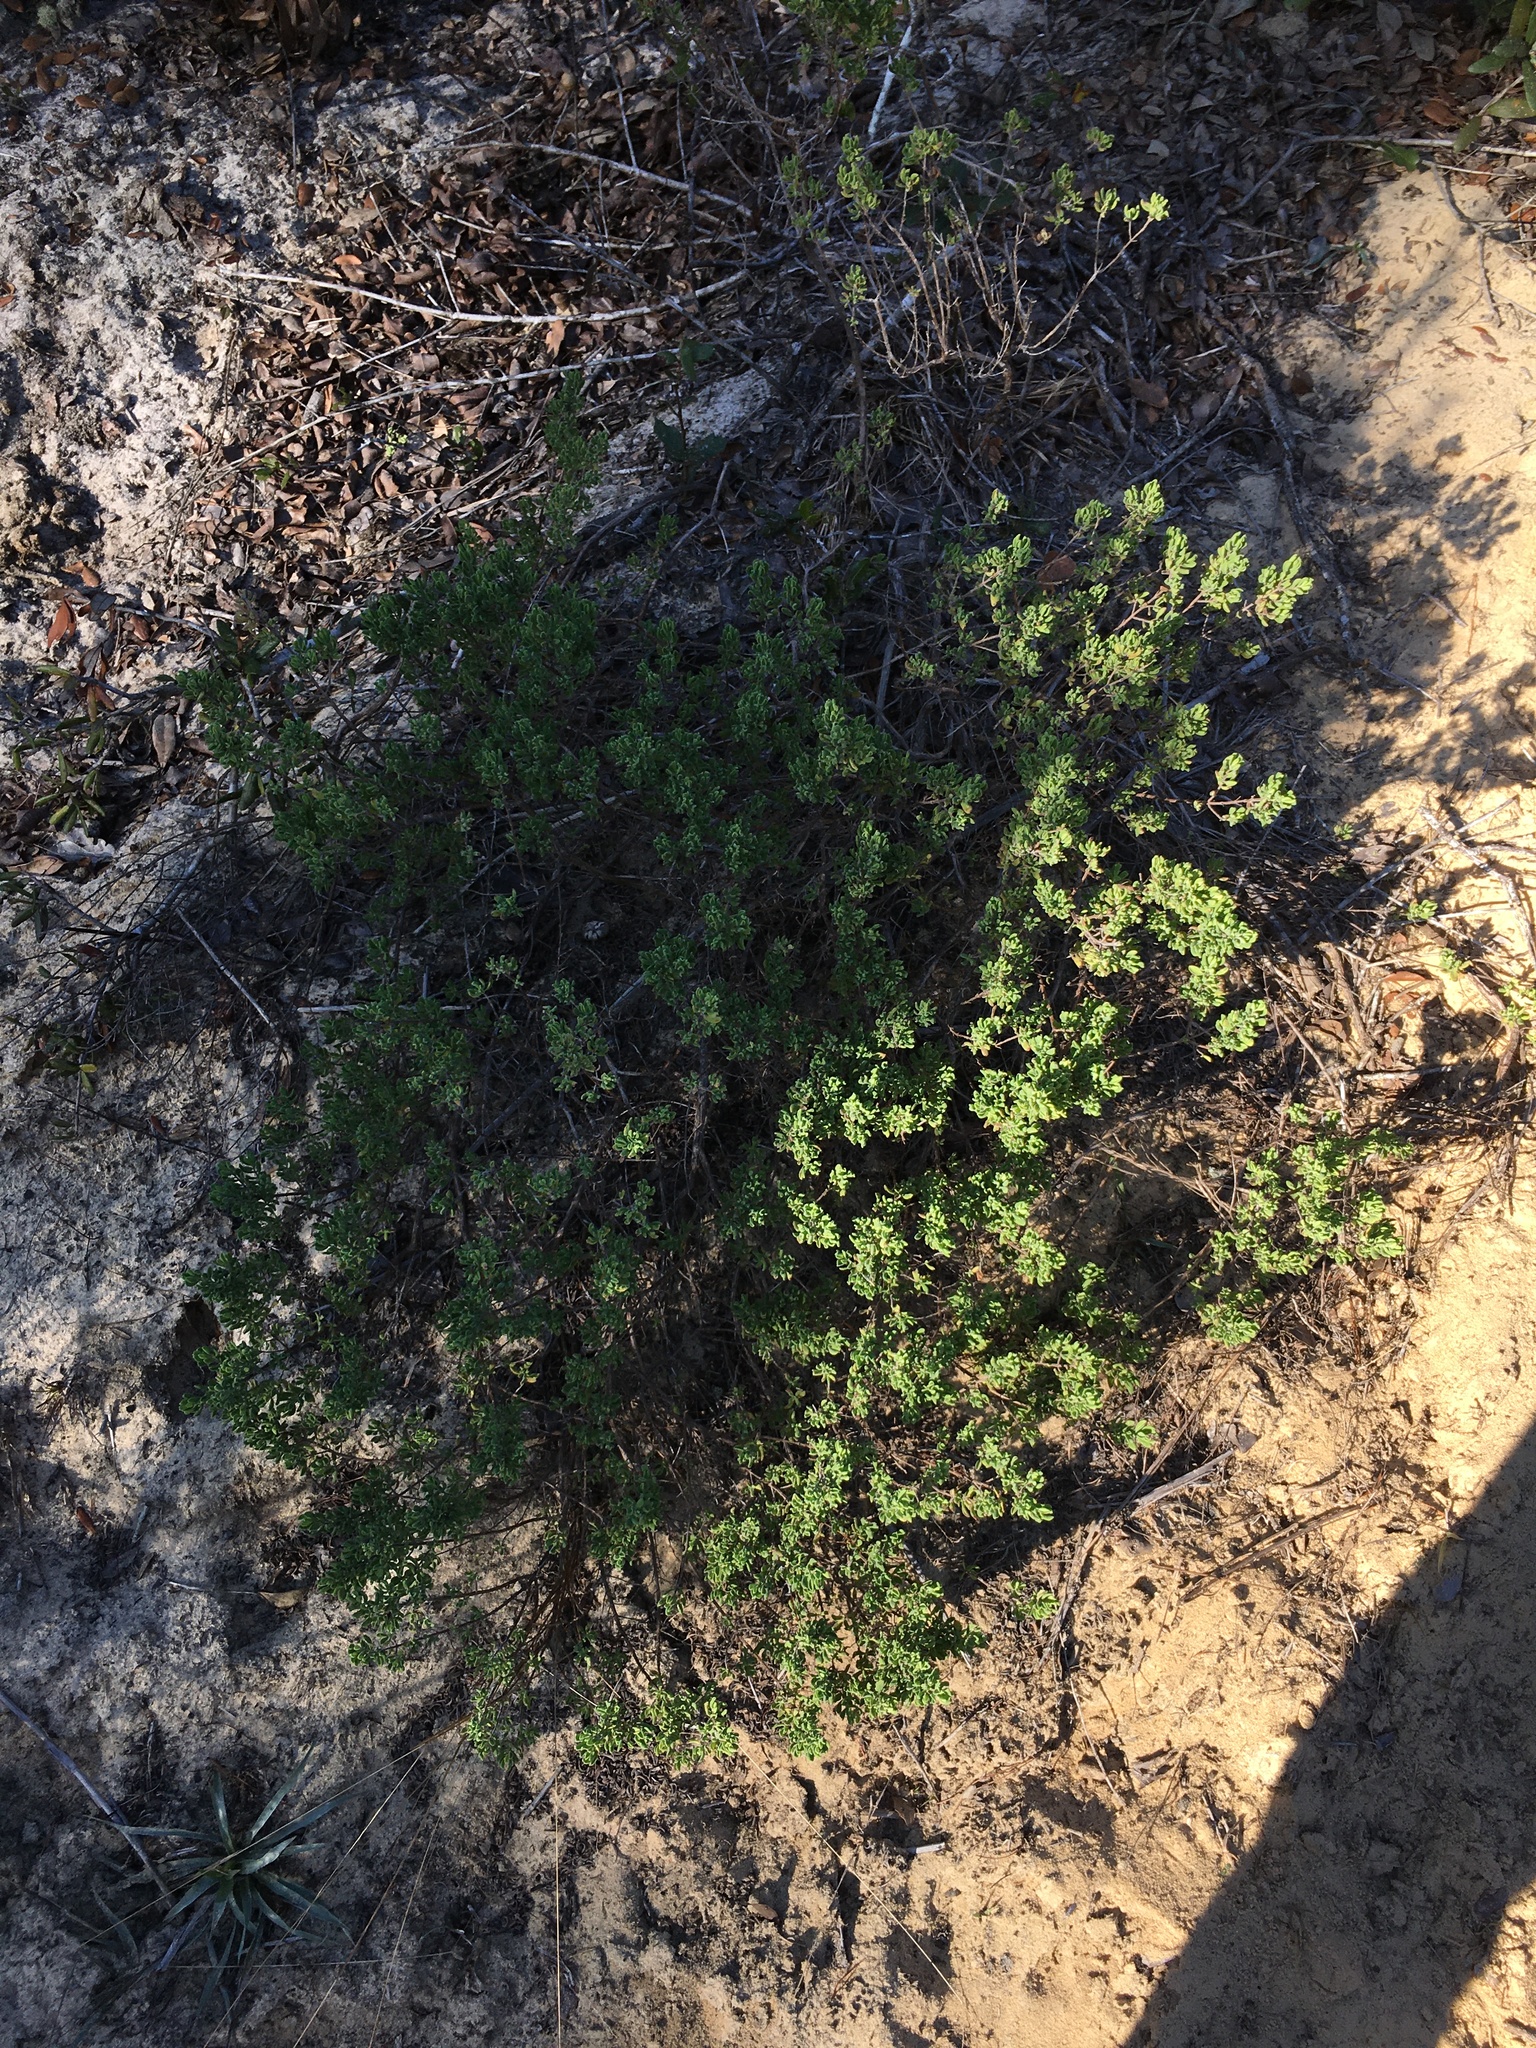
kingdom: Plantae
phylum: Tracheophyta
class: Magnoliopsida
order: Lamiales
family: Lamiaceae
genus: Clinopodium
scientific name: Clinopodium ashei
